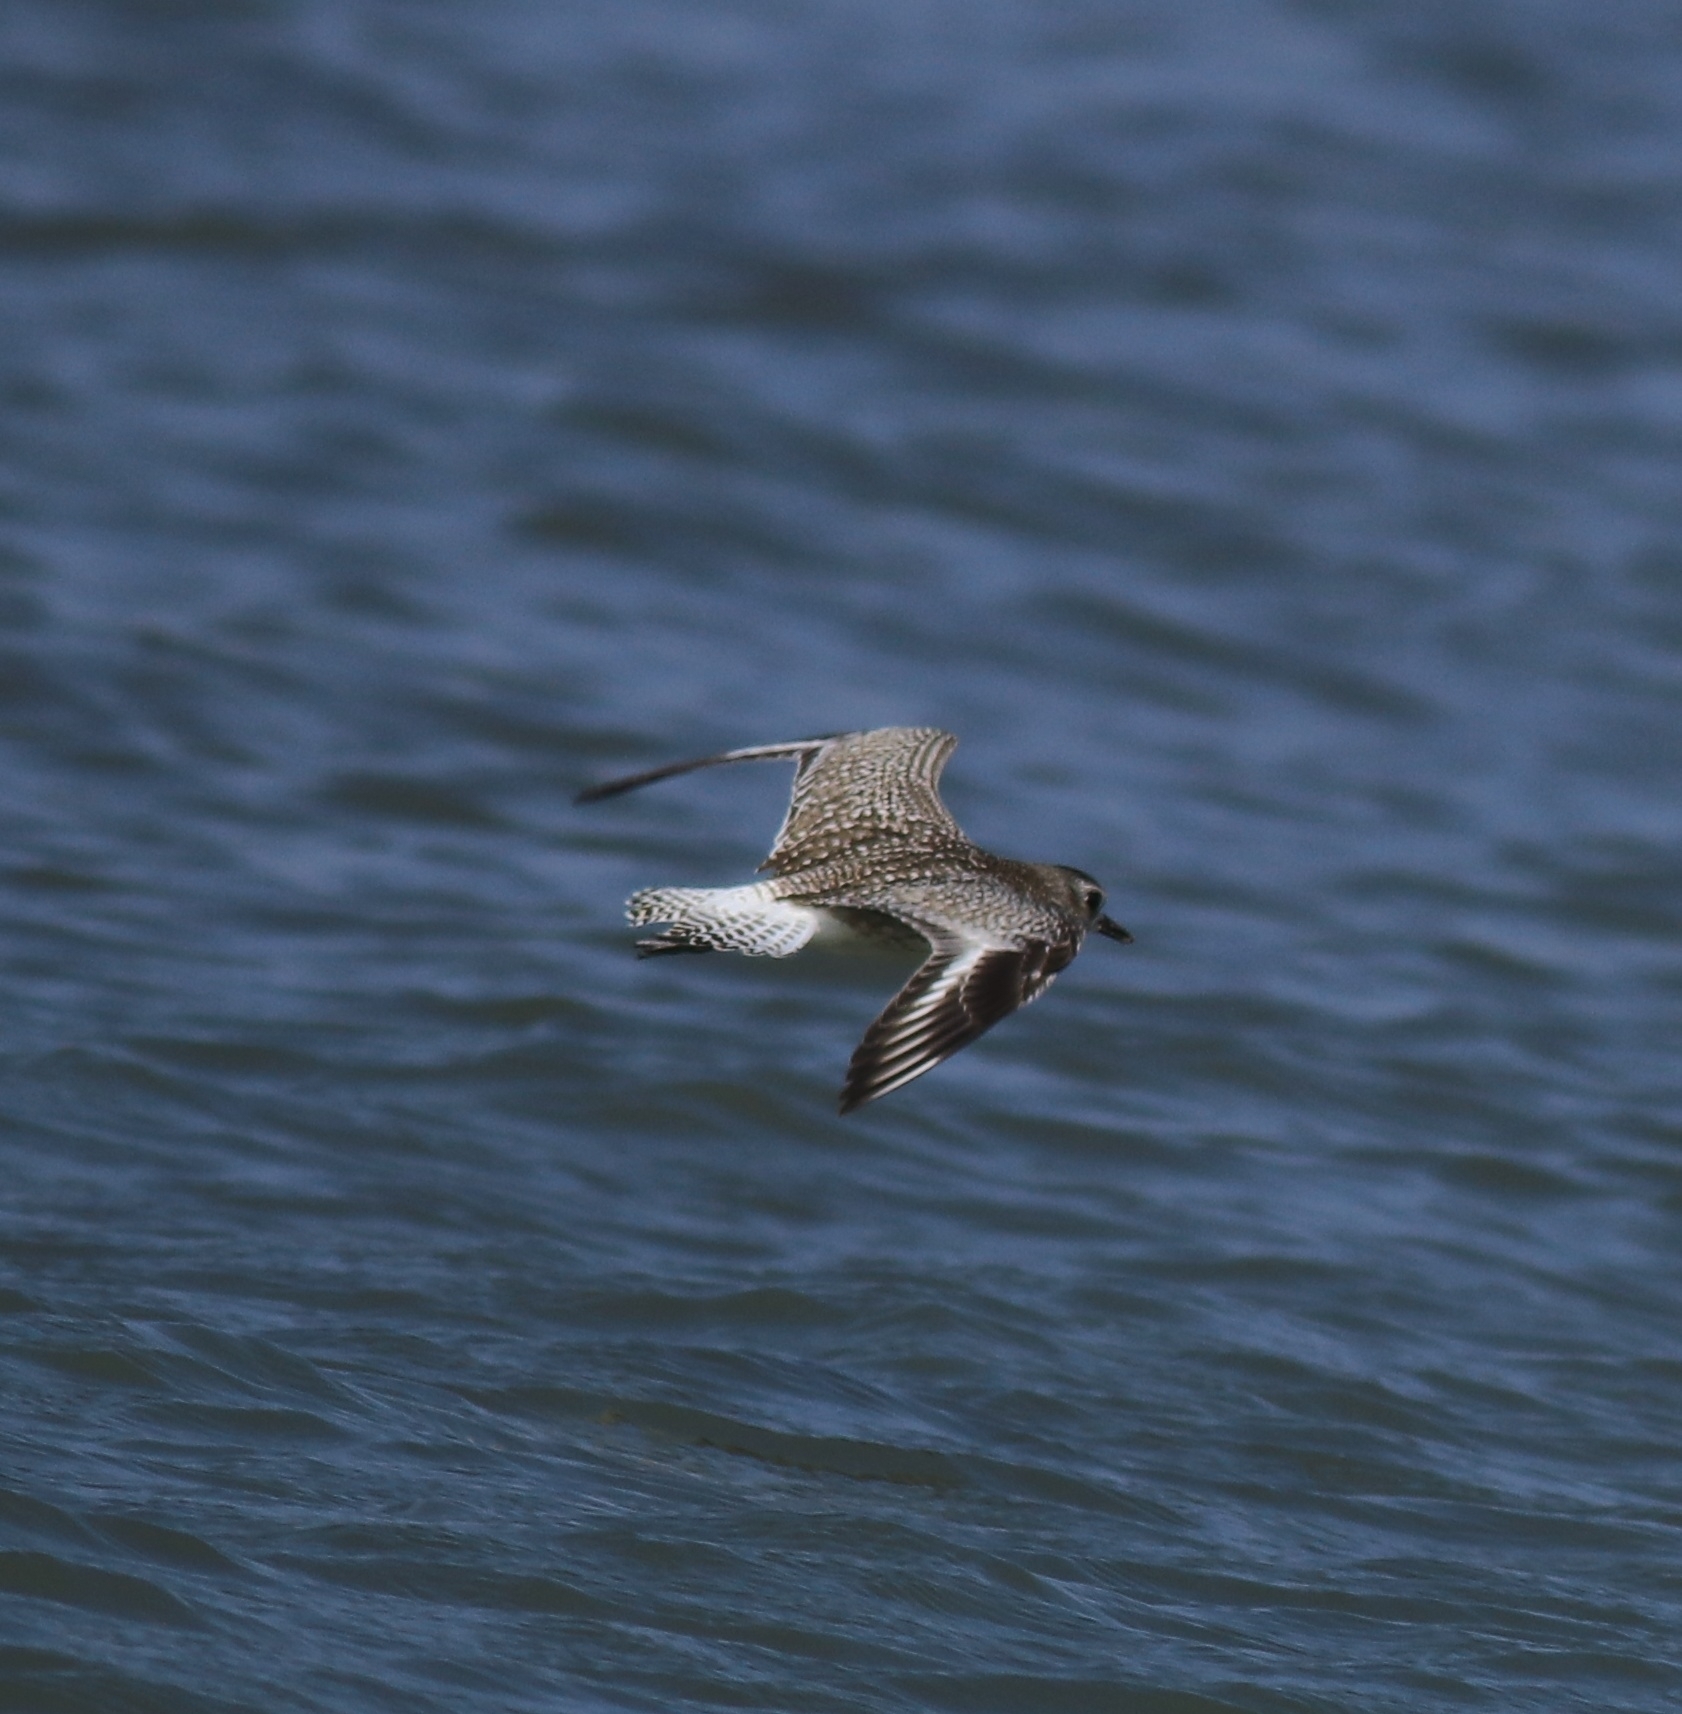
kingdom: Animalia
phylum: Chordata
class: Aves
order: Charadriiformes
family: Charadriidae
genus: Pluvialis
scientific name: Pluvialis squatarola
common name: Grey plover
